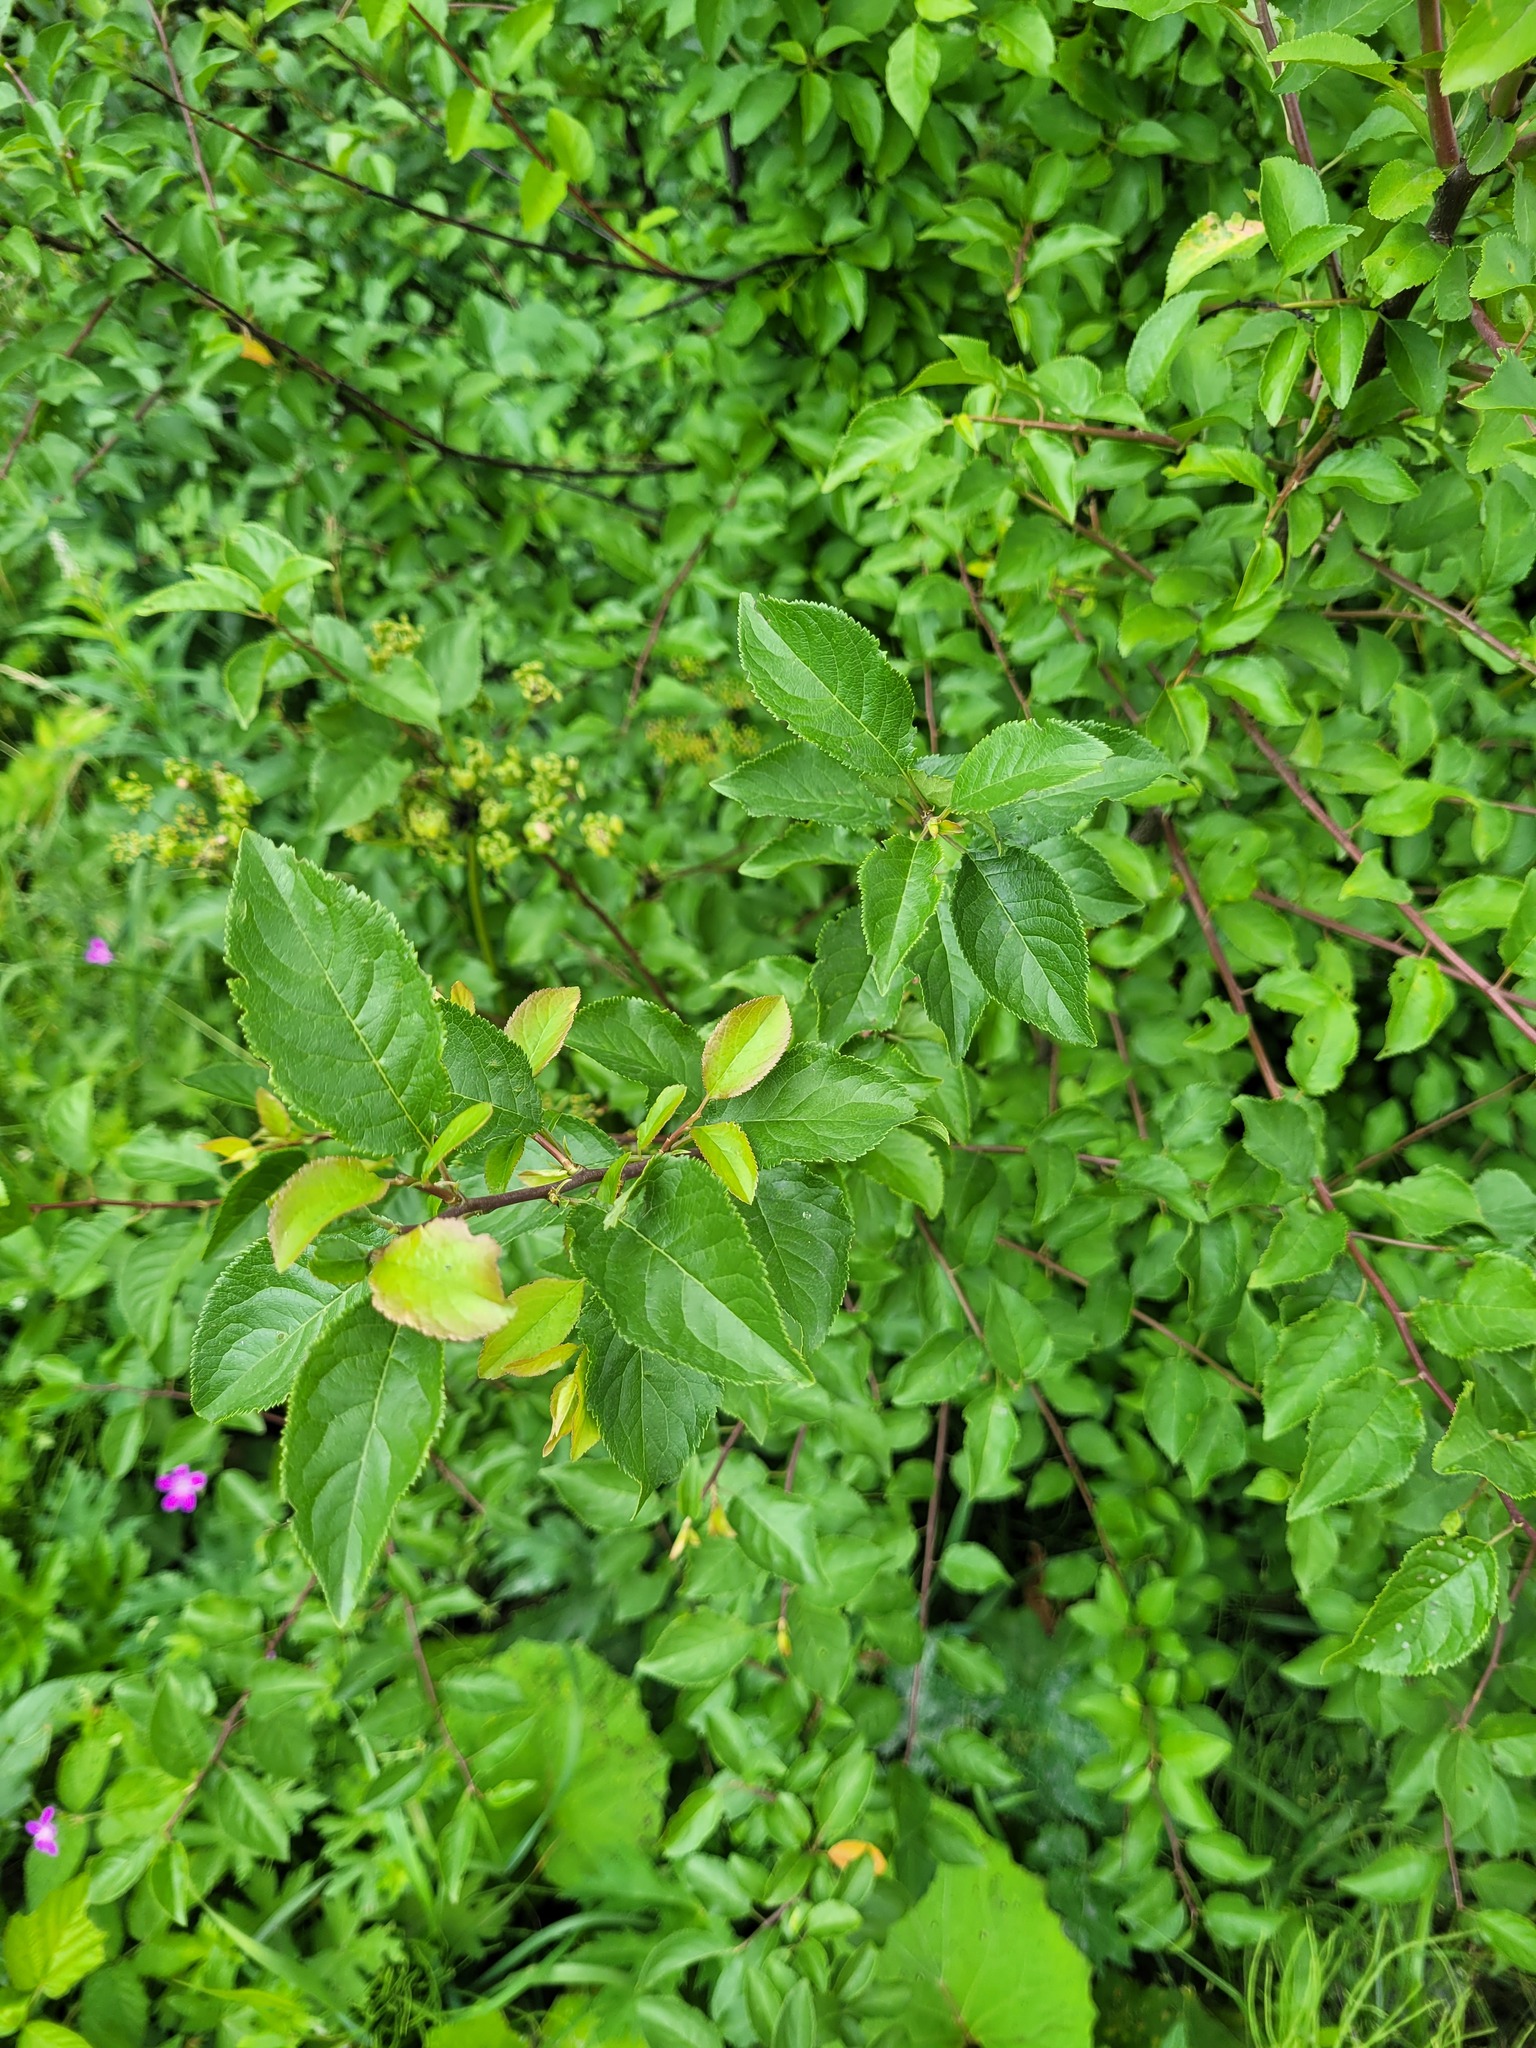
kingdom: Plantae
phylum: Tracheophyta
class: Magnoliopsida
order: Rosales
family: Rosaceae
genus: Prunus
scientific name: Prunus cerasifera
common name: Cherry plum
